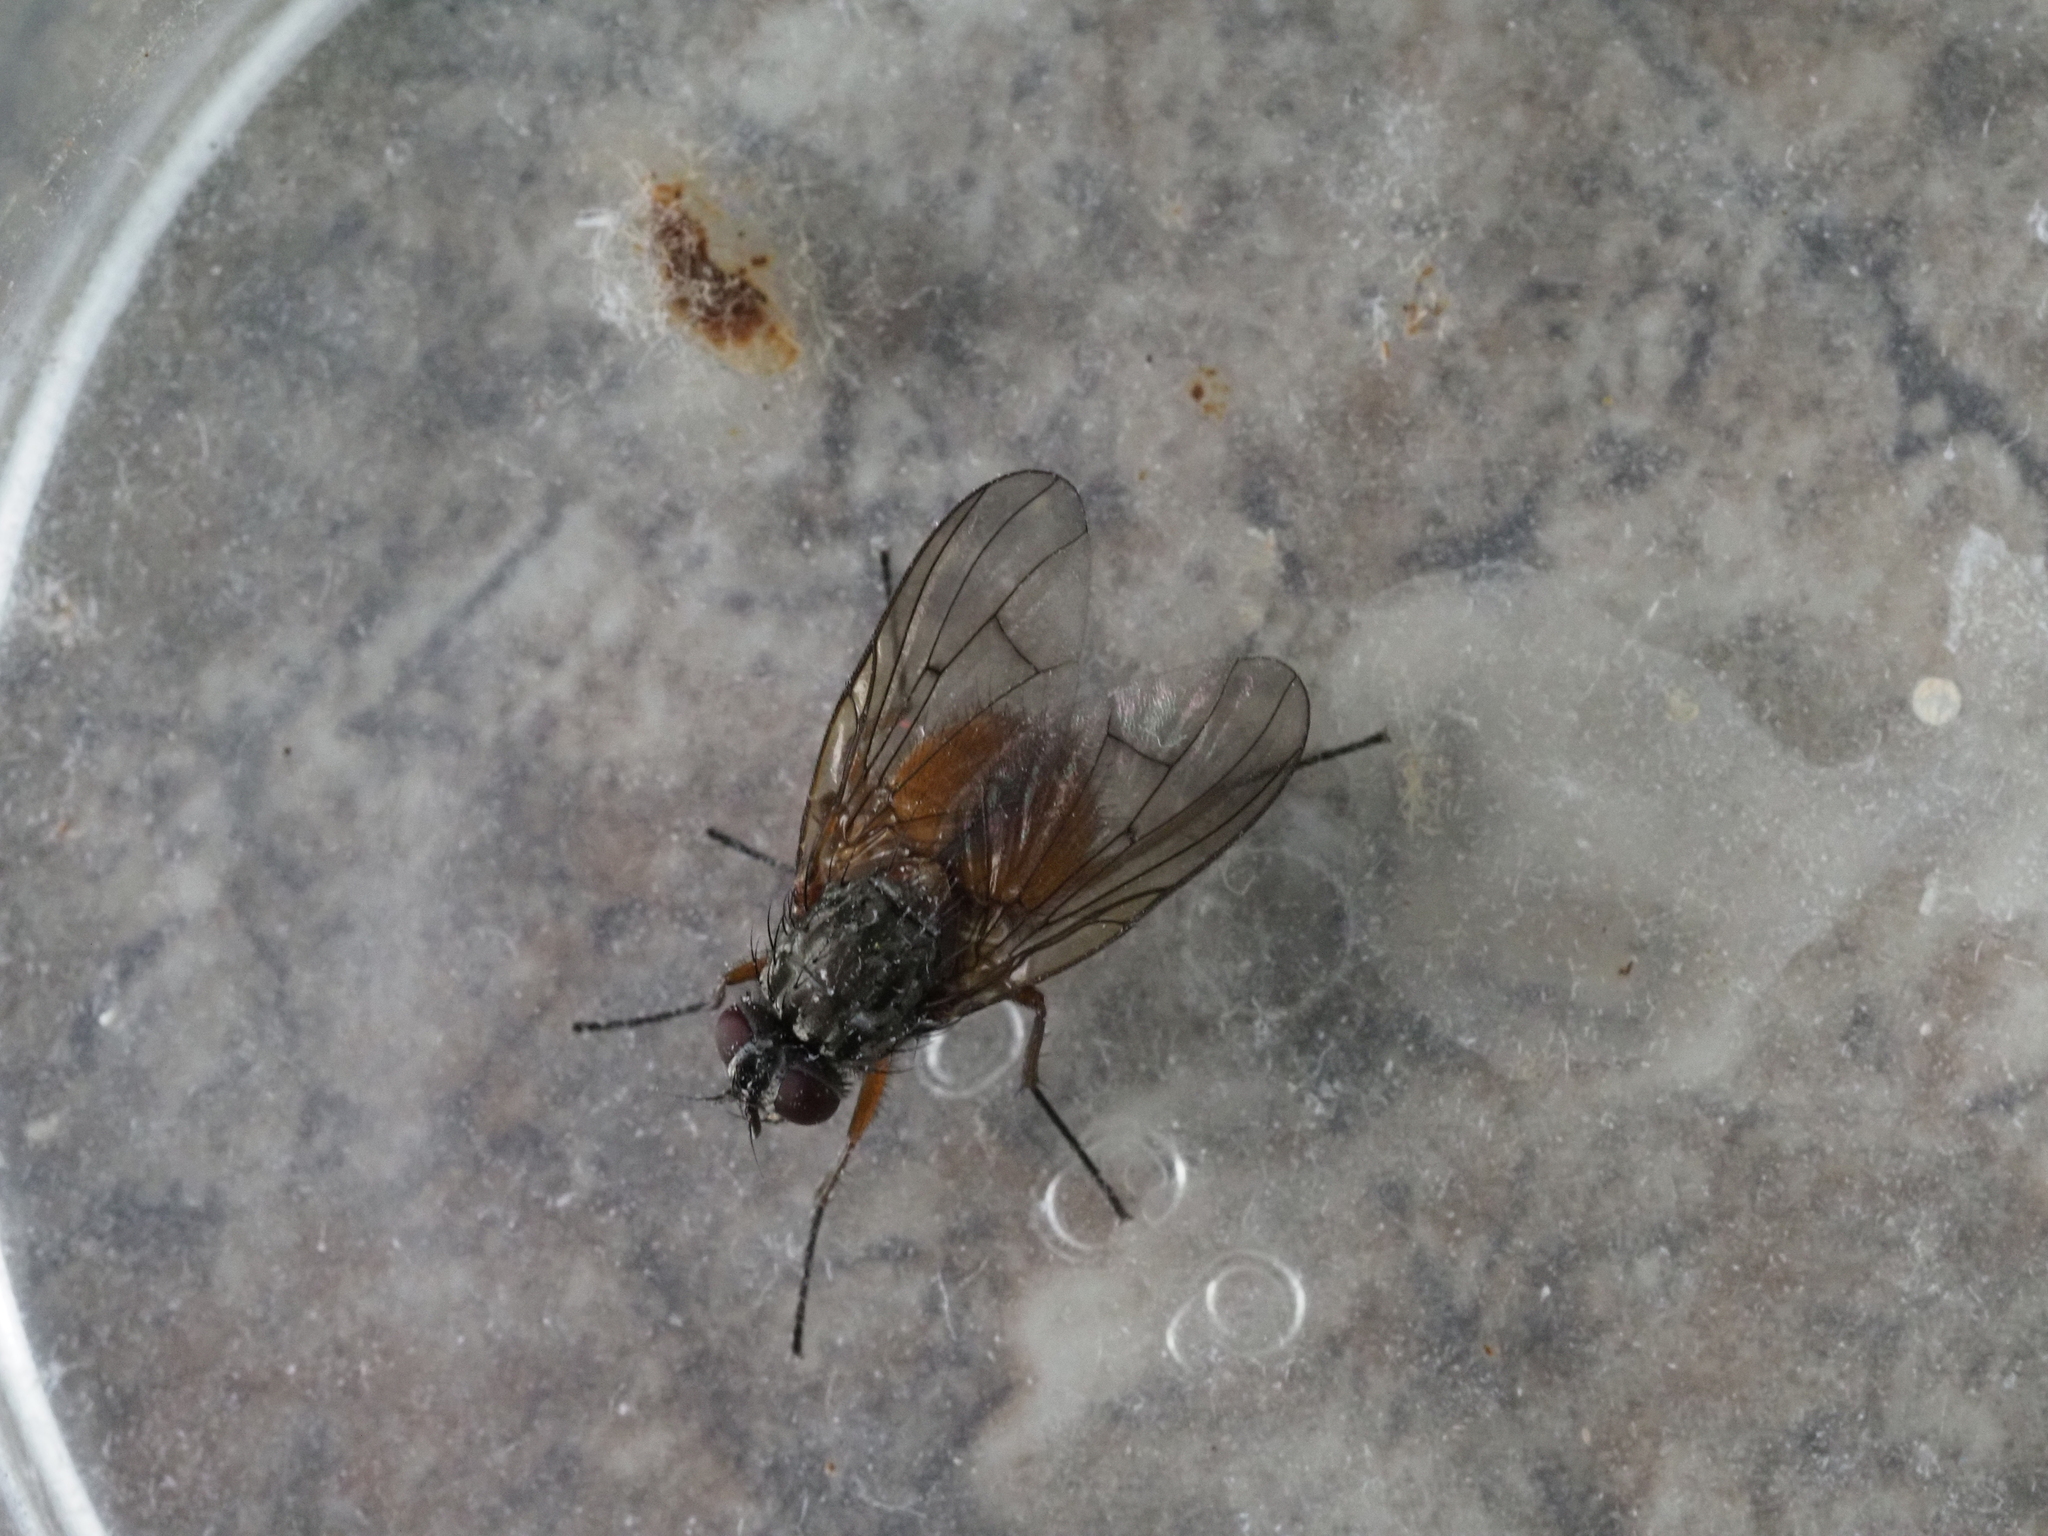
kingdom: Animalia
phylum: Arthropoda
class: Insecta
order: Diptera
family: Muscidae
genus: Phaonia
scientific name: Phaonia subventa
